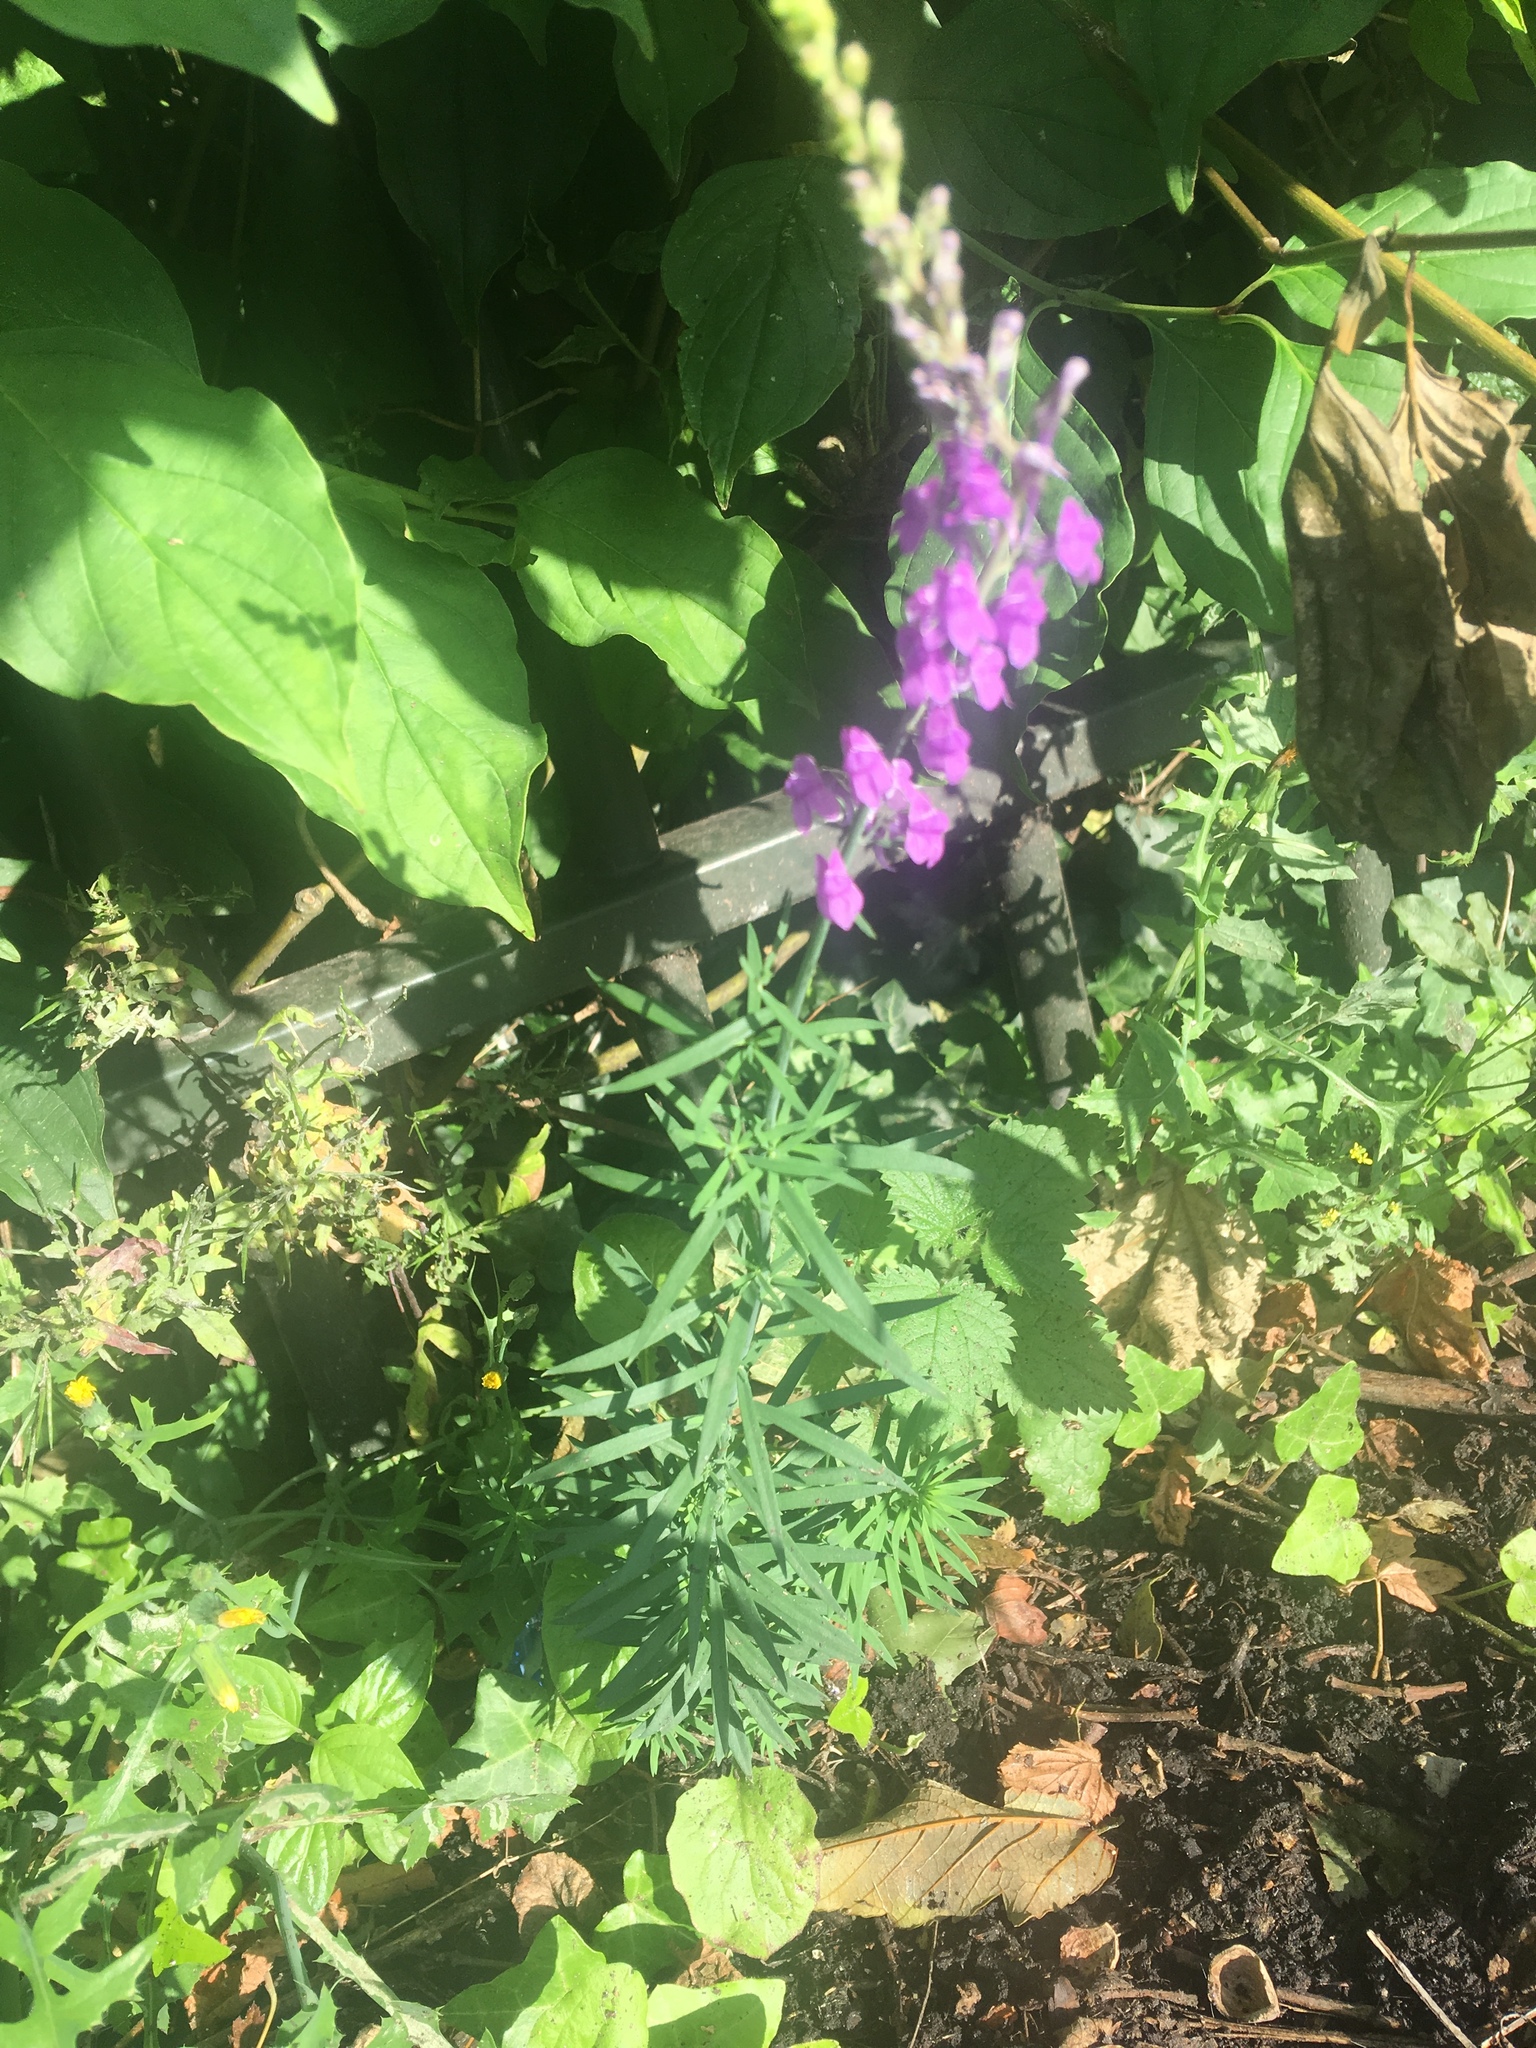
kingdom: Plantae
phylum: Tracheophyta
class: Magnoliopsida
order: Lamiales
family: Plantaginaceae
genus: Linaria
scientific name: Linaria purpurea
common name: Purple toadflax
